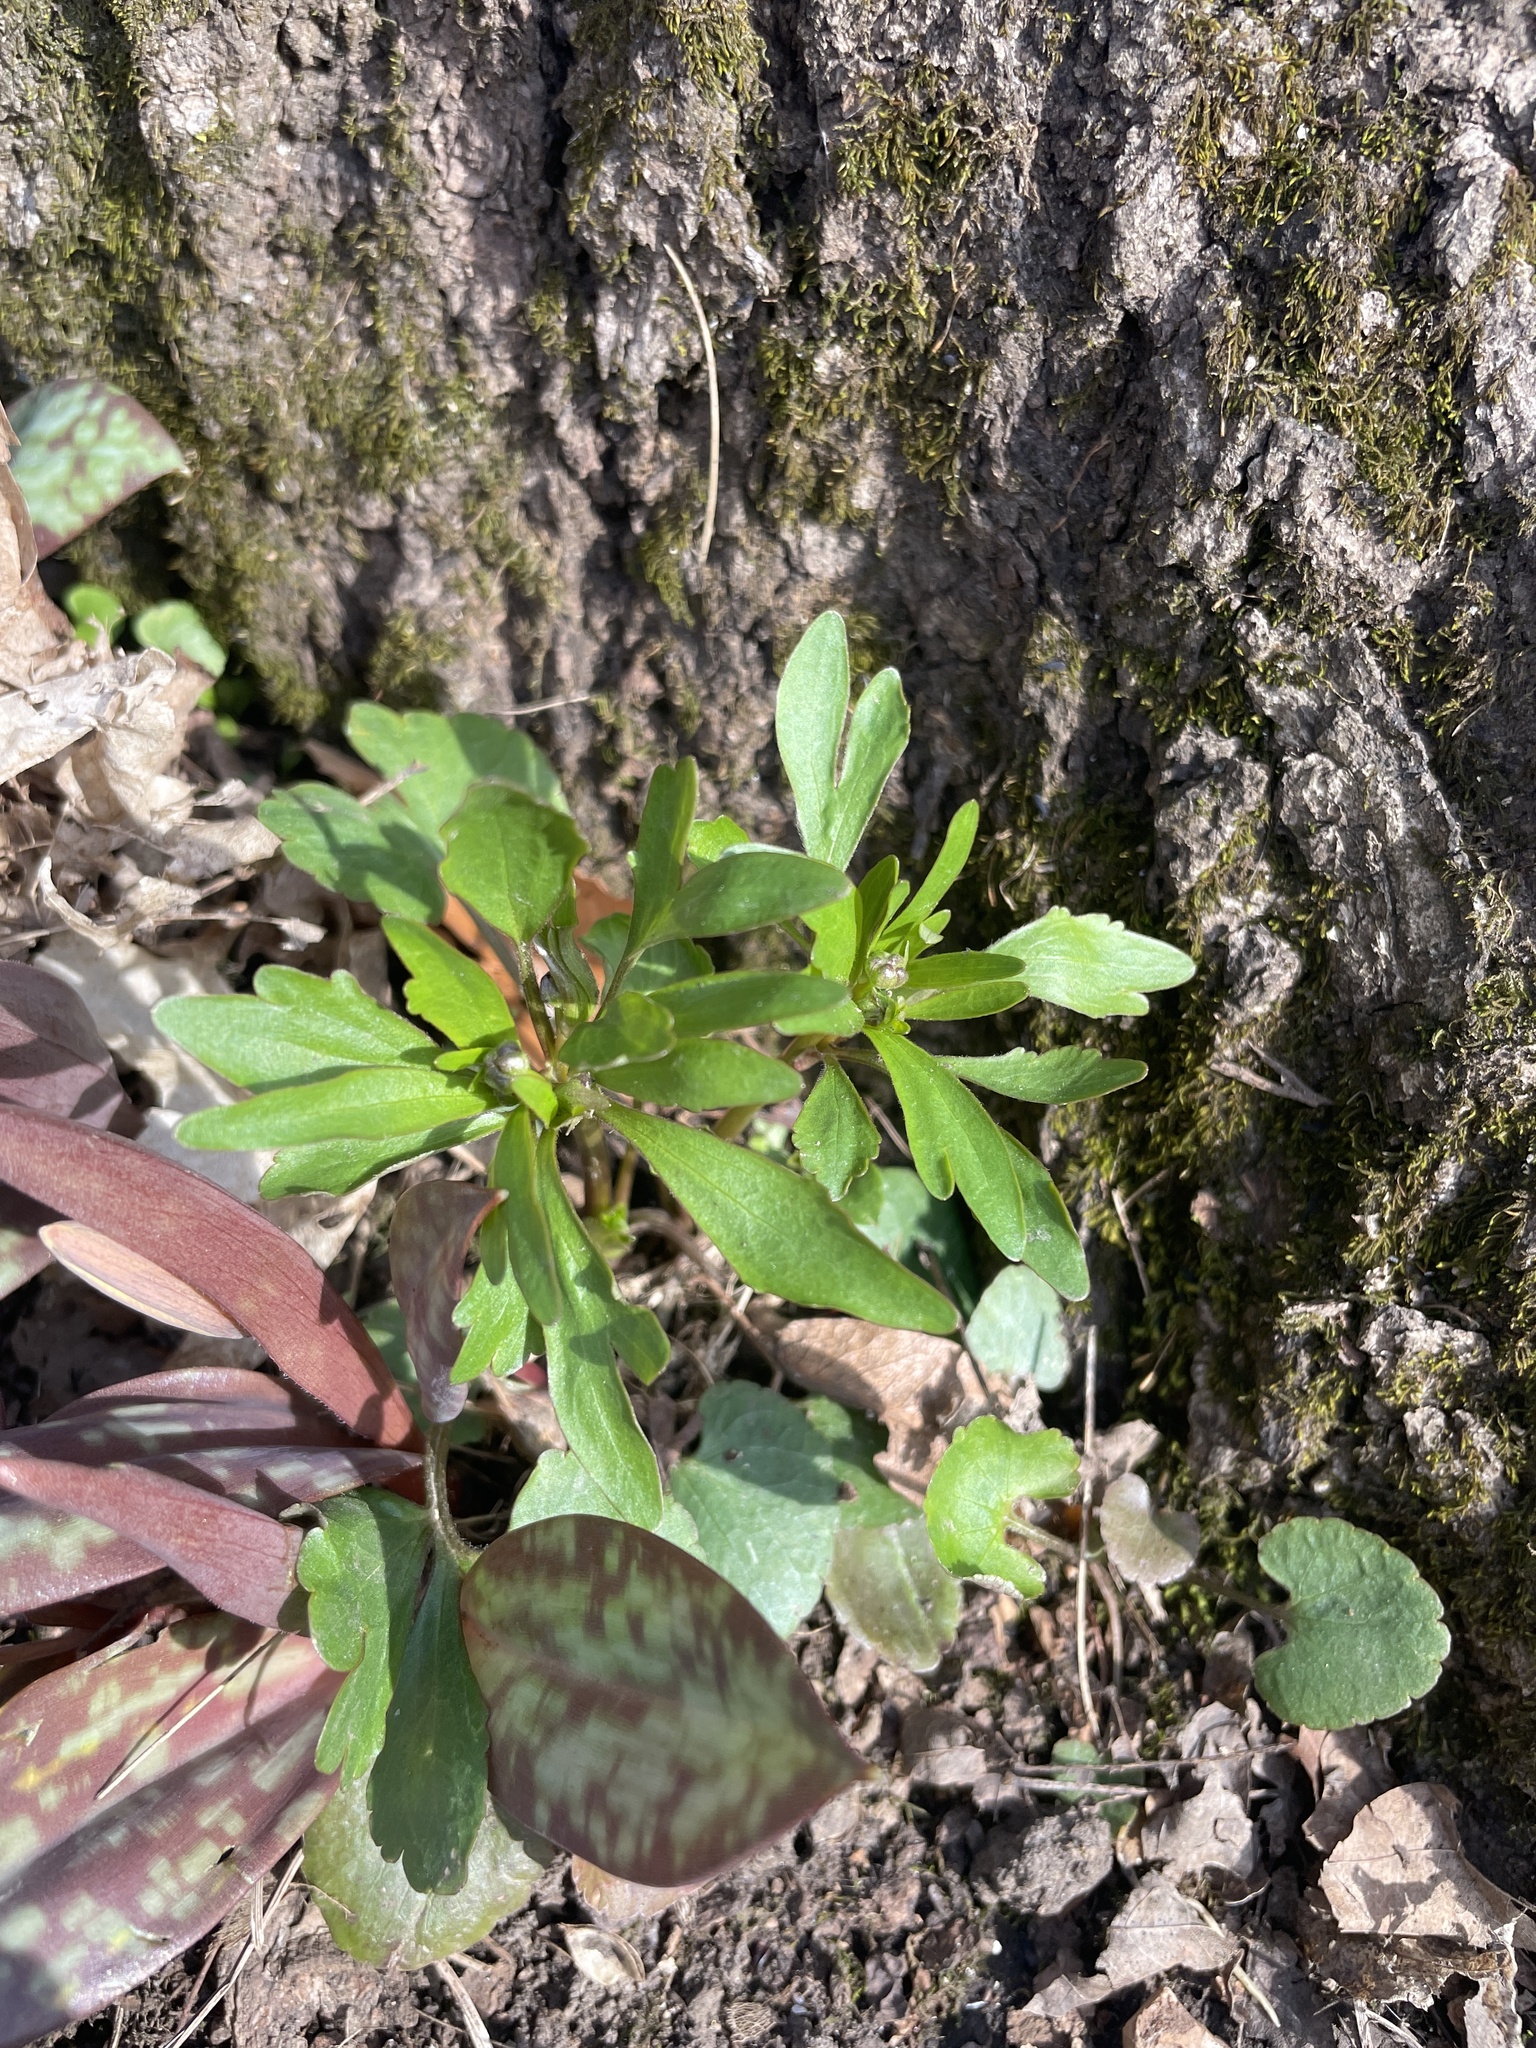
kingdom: Plantae
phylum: Tracheophyta
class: Magnoliopsida
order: Ranunculales
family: Ranunculaceae
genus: Ranunculus
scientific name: Ranunculus abortivus
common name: Early wood buttercup
